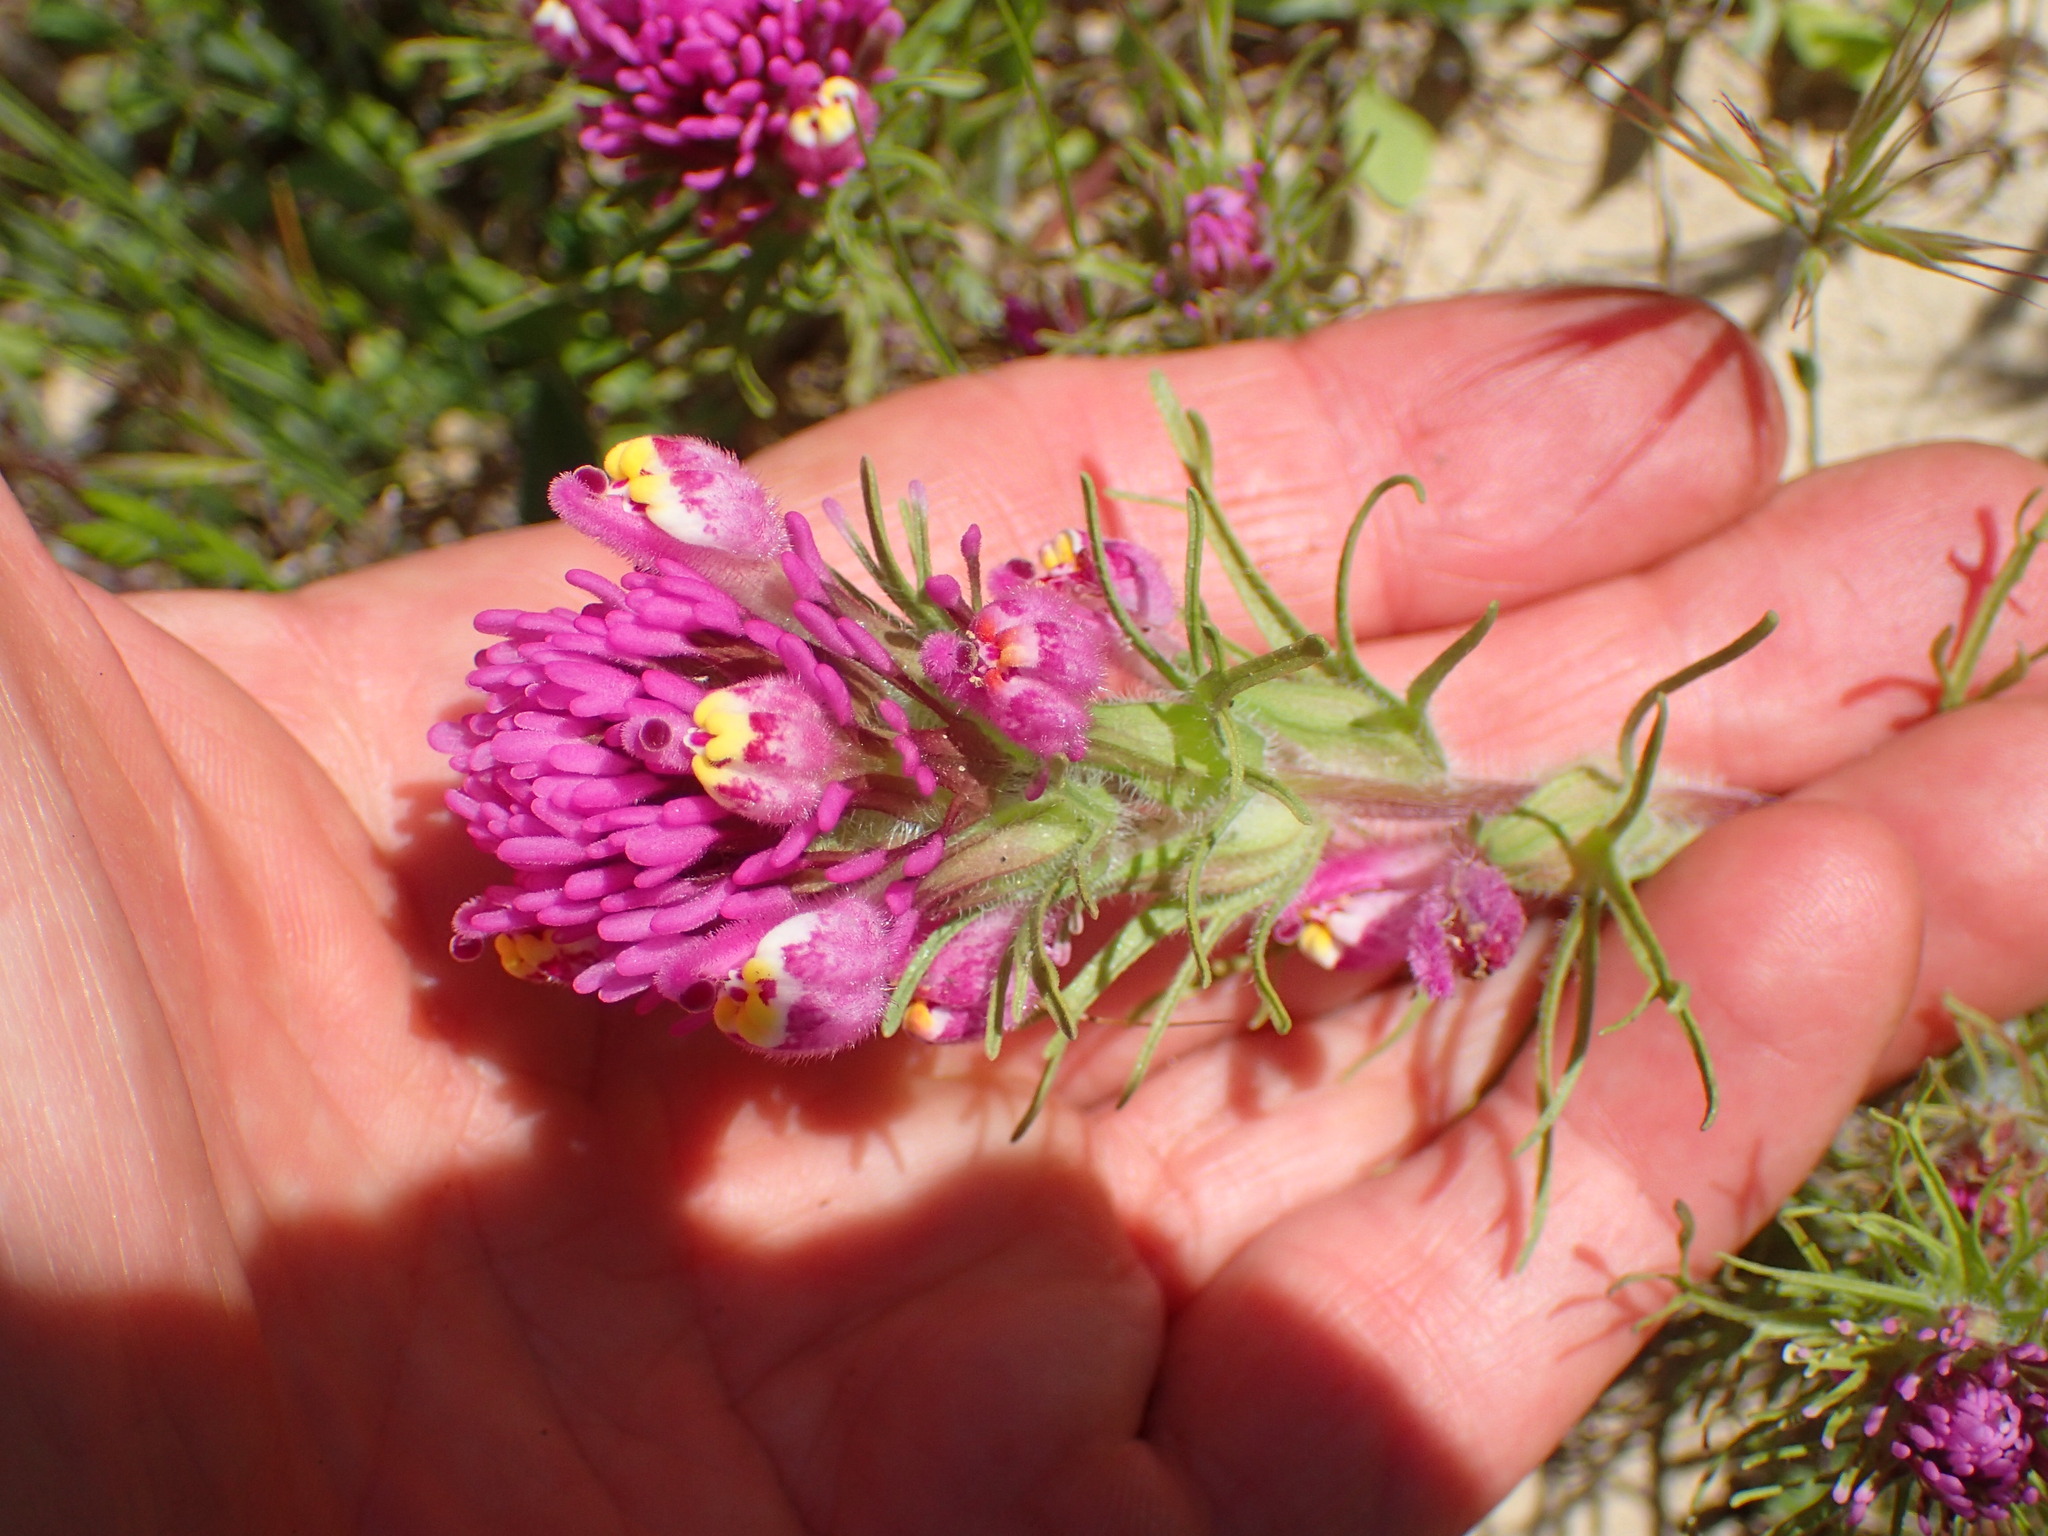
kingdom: Plantae
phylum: Tracheophyta
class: Magnoliopsida
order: Lamiales
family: Orobanchaceae
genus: Castilleja
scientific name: Castilleja exserta
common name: Purple owl-clover
